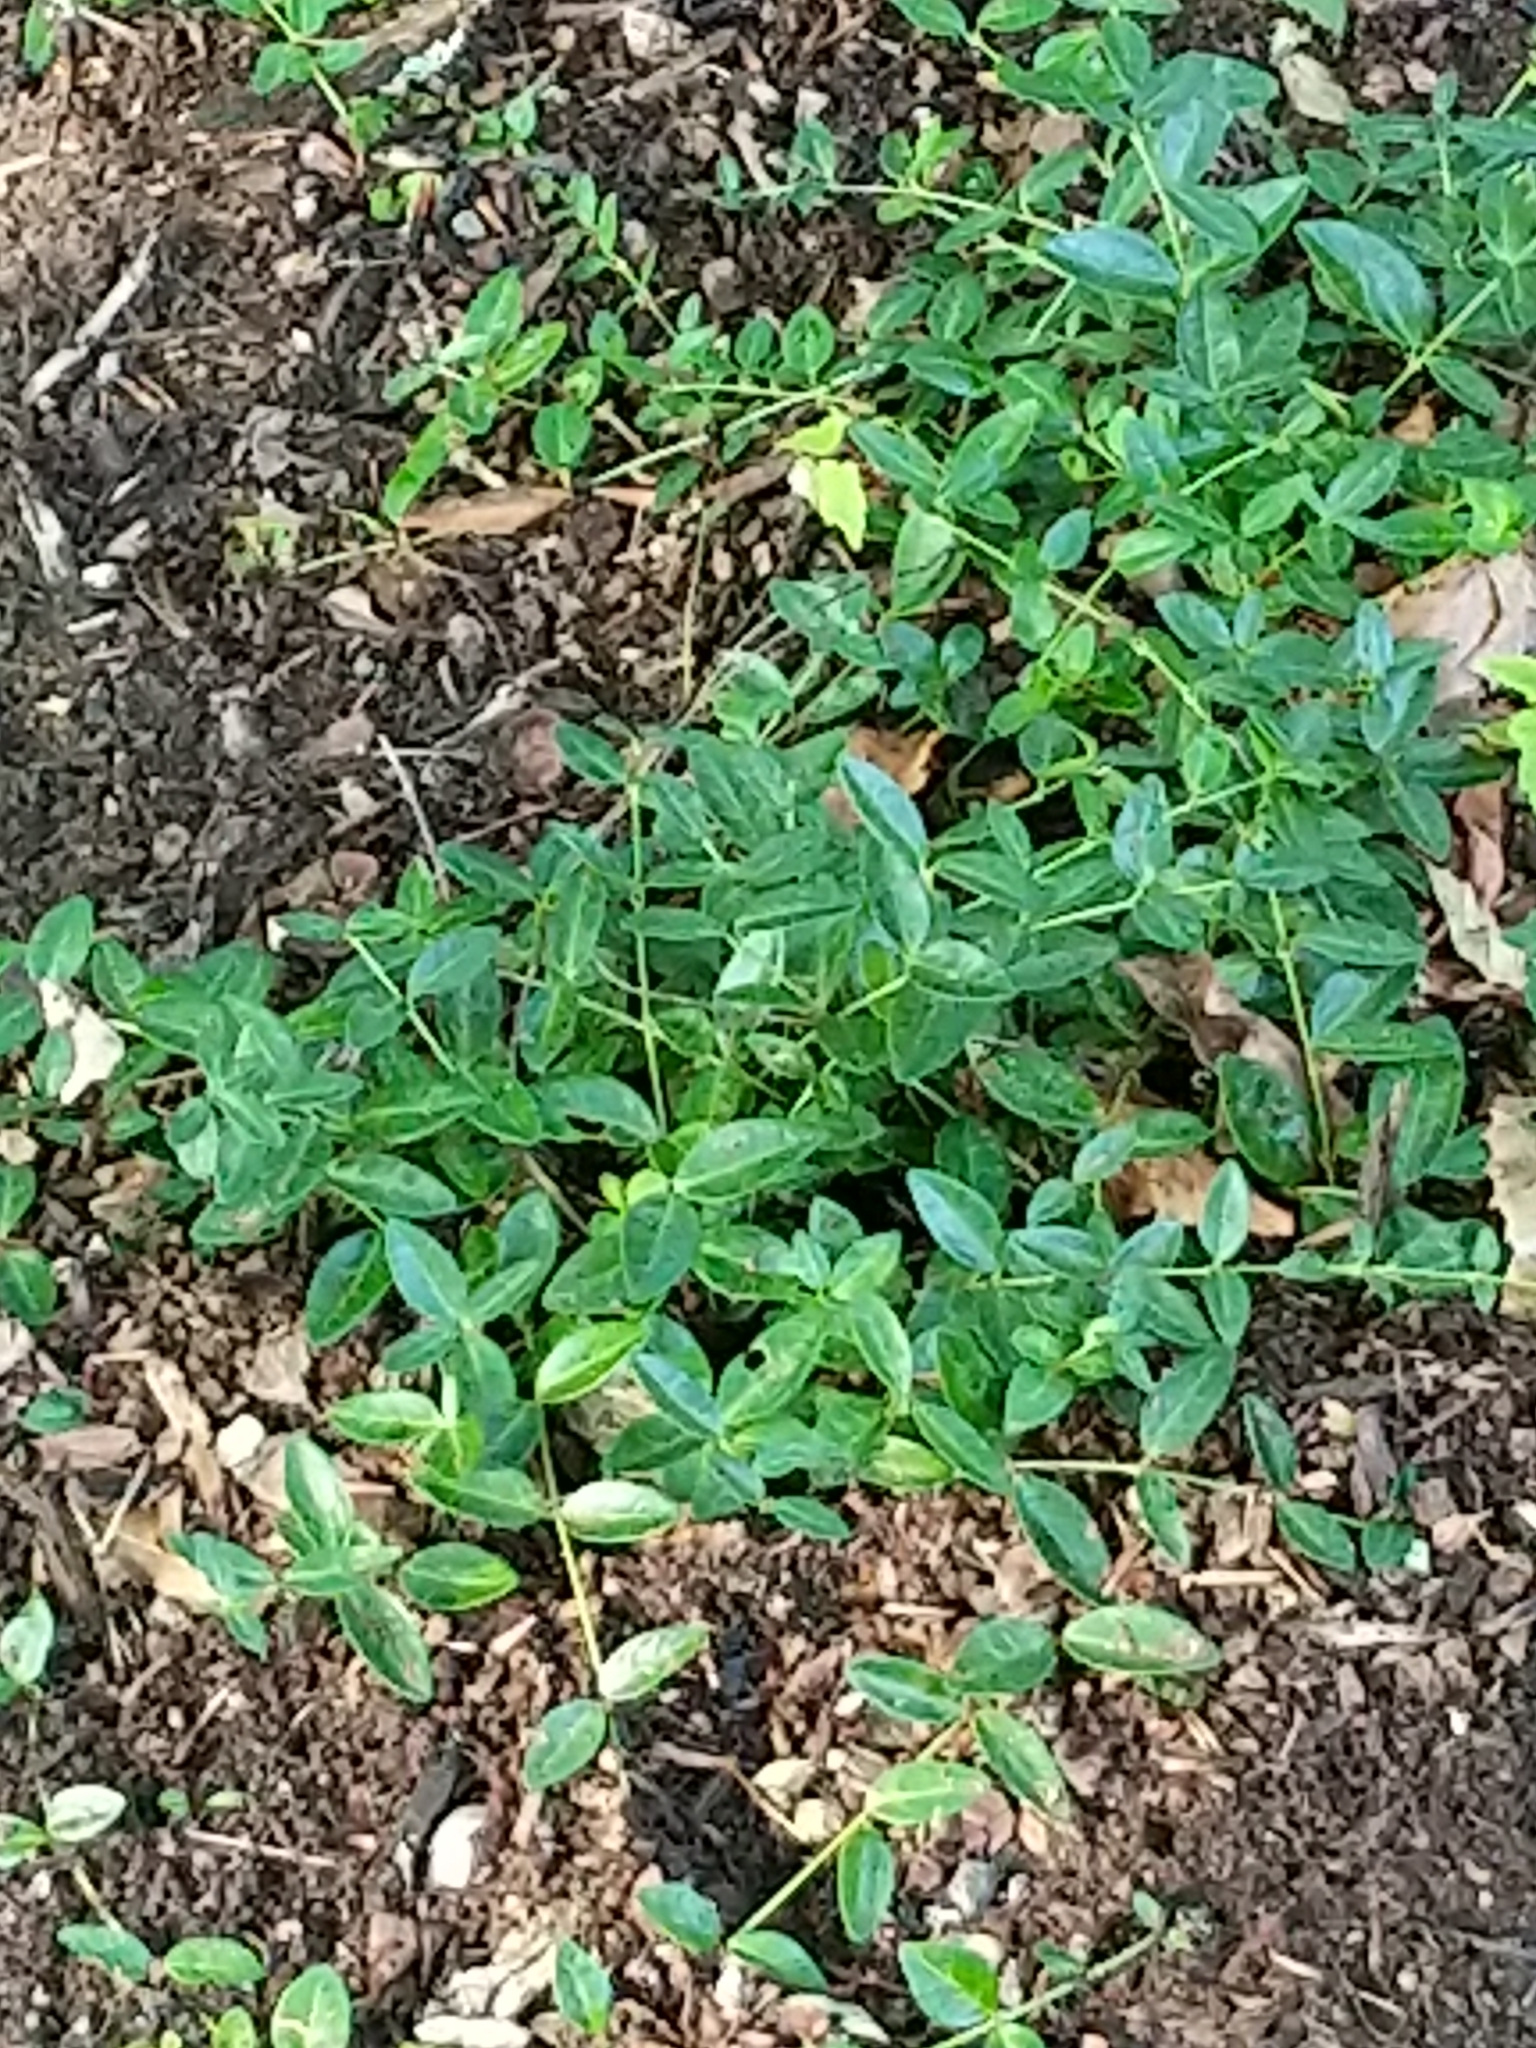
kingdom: Plantae
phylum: Tracheophyta
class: Magnoliopsida
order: Gentianales
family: Apocynaceae
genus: Vinca
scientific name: Vinca minor
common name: Lesser periwinkle
